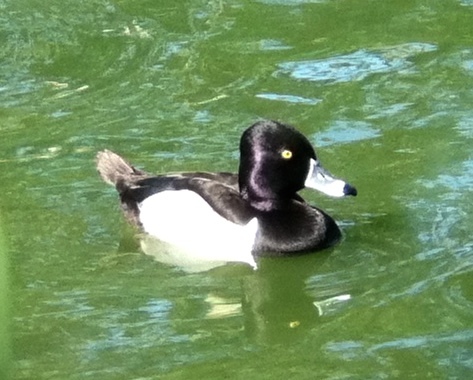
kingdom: Animalia
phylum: Chordata
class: Aves
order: Anseriformes
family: Anatidae
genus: Aythya
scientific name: Aythya collaris
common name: Ring-necked duck
